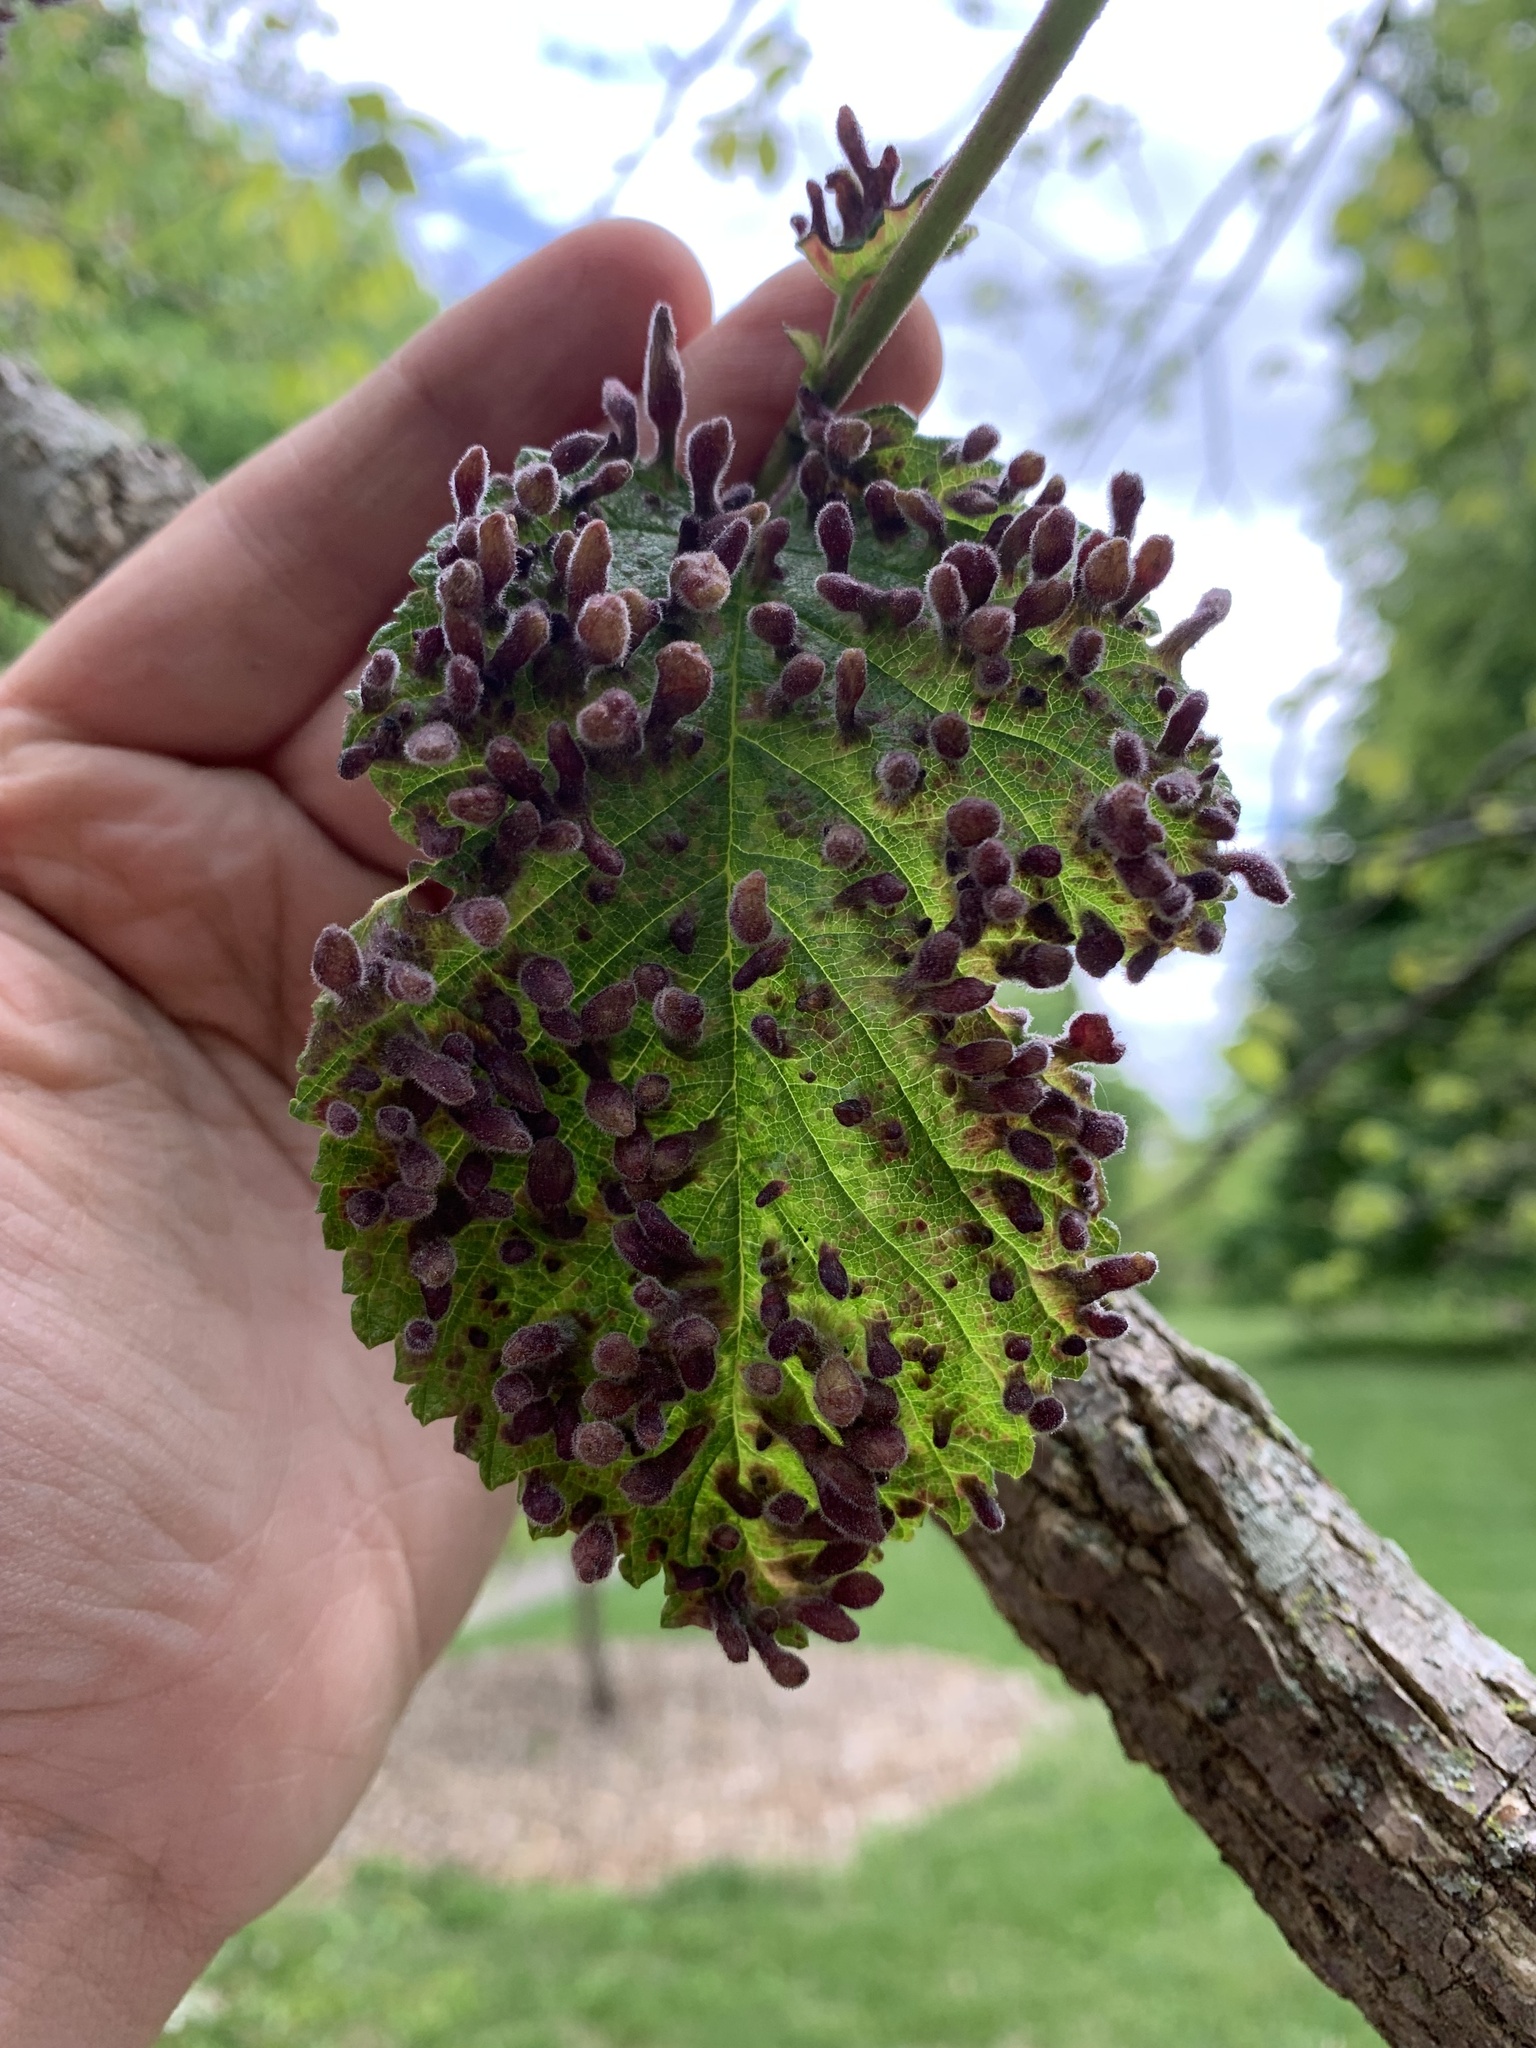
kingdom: Animalia
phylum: Arthropoda
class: Insecta
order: Hemiptera
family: Aphididae
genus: Tetraneura
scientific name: Tetraneura nigriabdominalis
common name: Aphid
